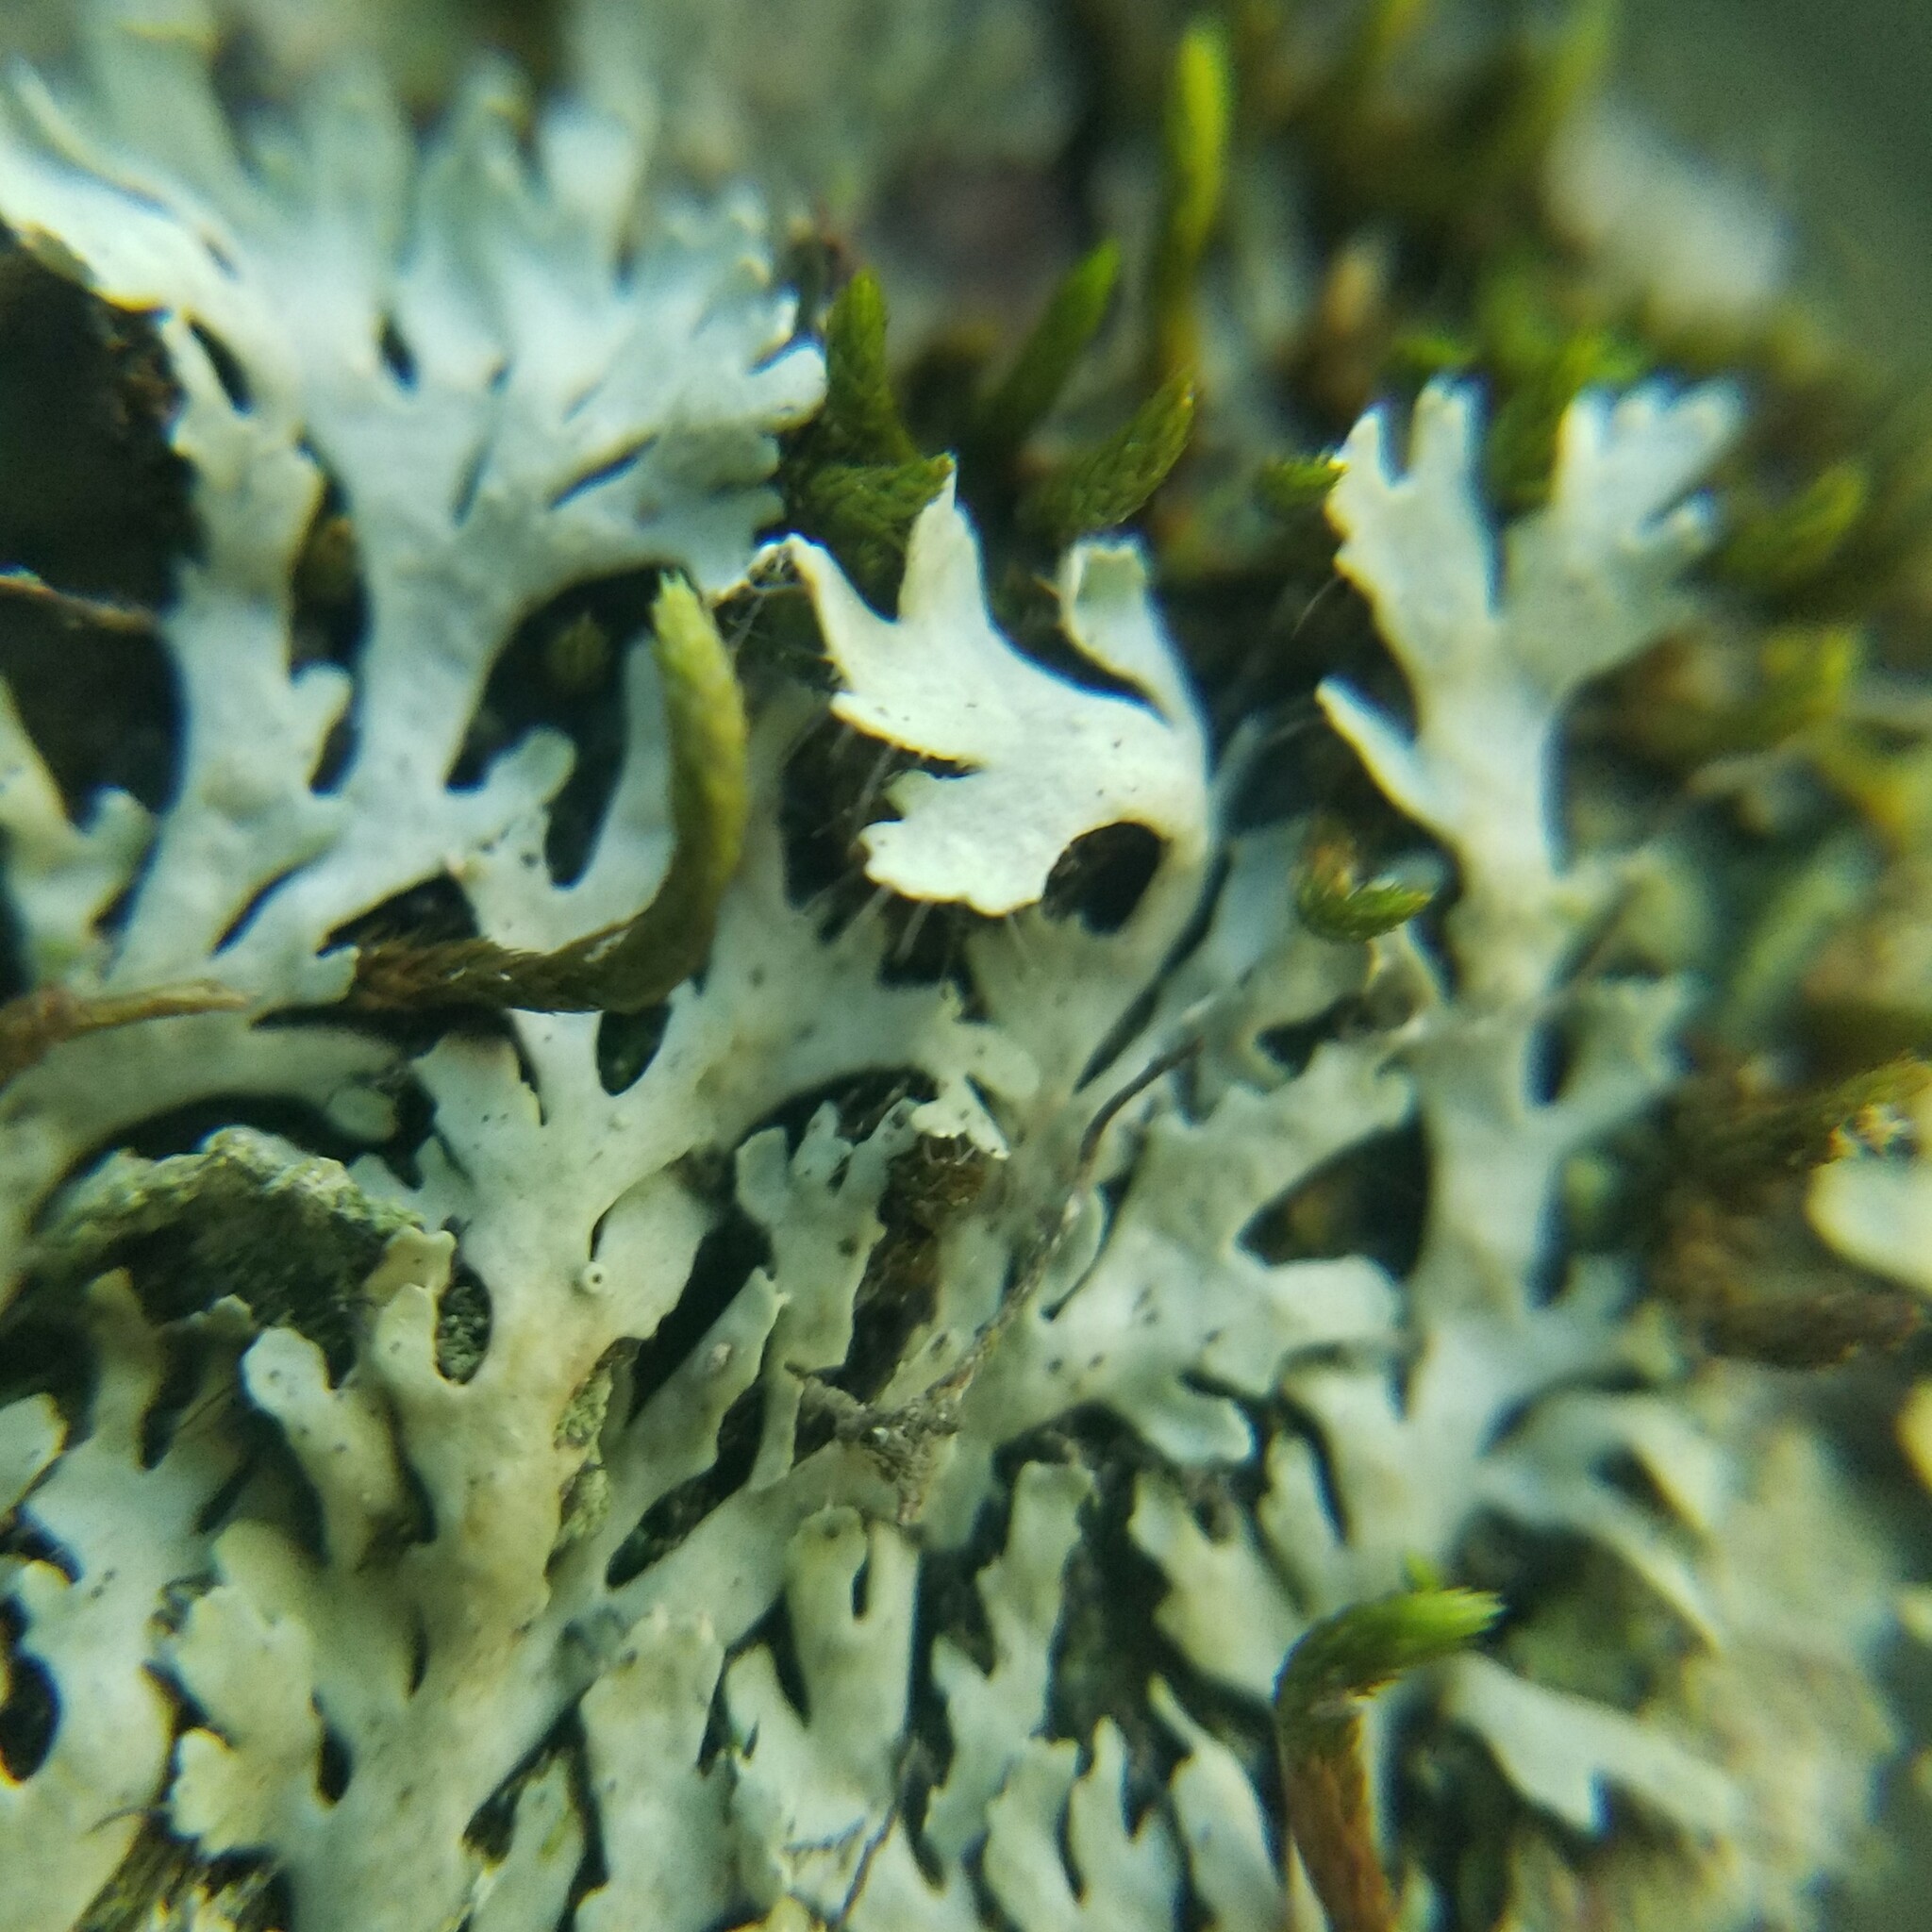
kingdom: Fungi
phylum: Ascomycota
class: Lecanoromycetes
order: Caliciales
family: Physciaceae
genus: Polyblastidium
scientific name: Polyblastidium hypoleucum
